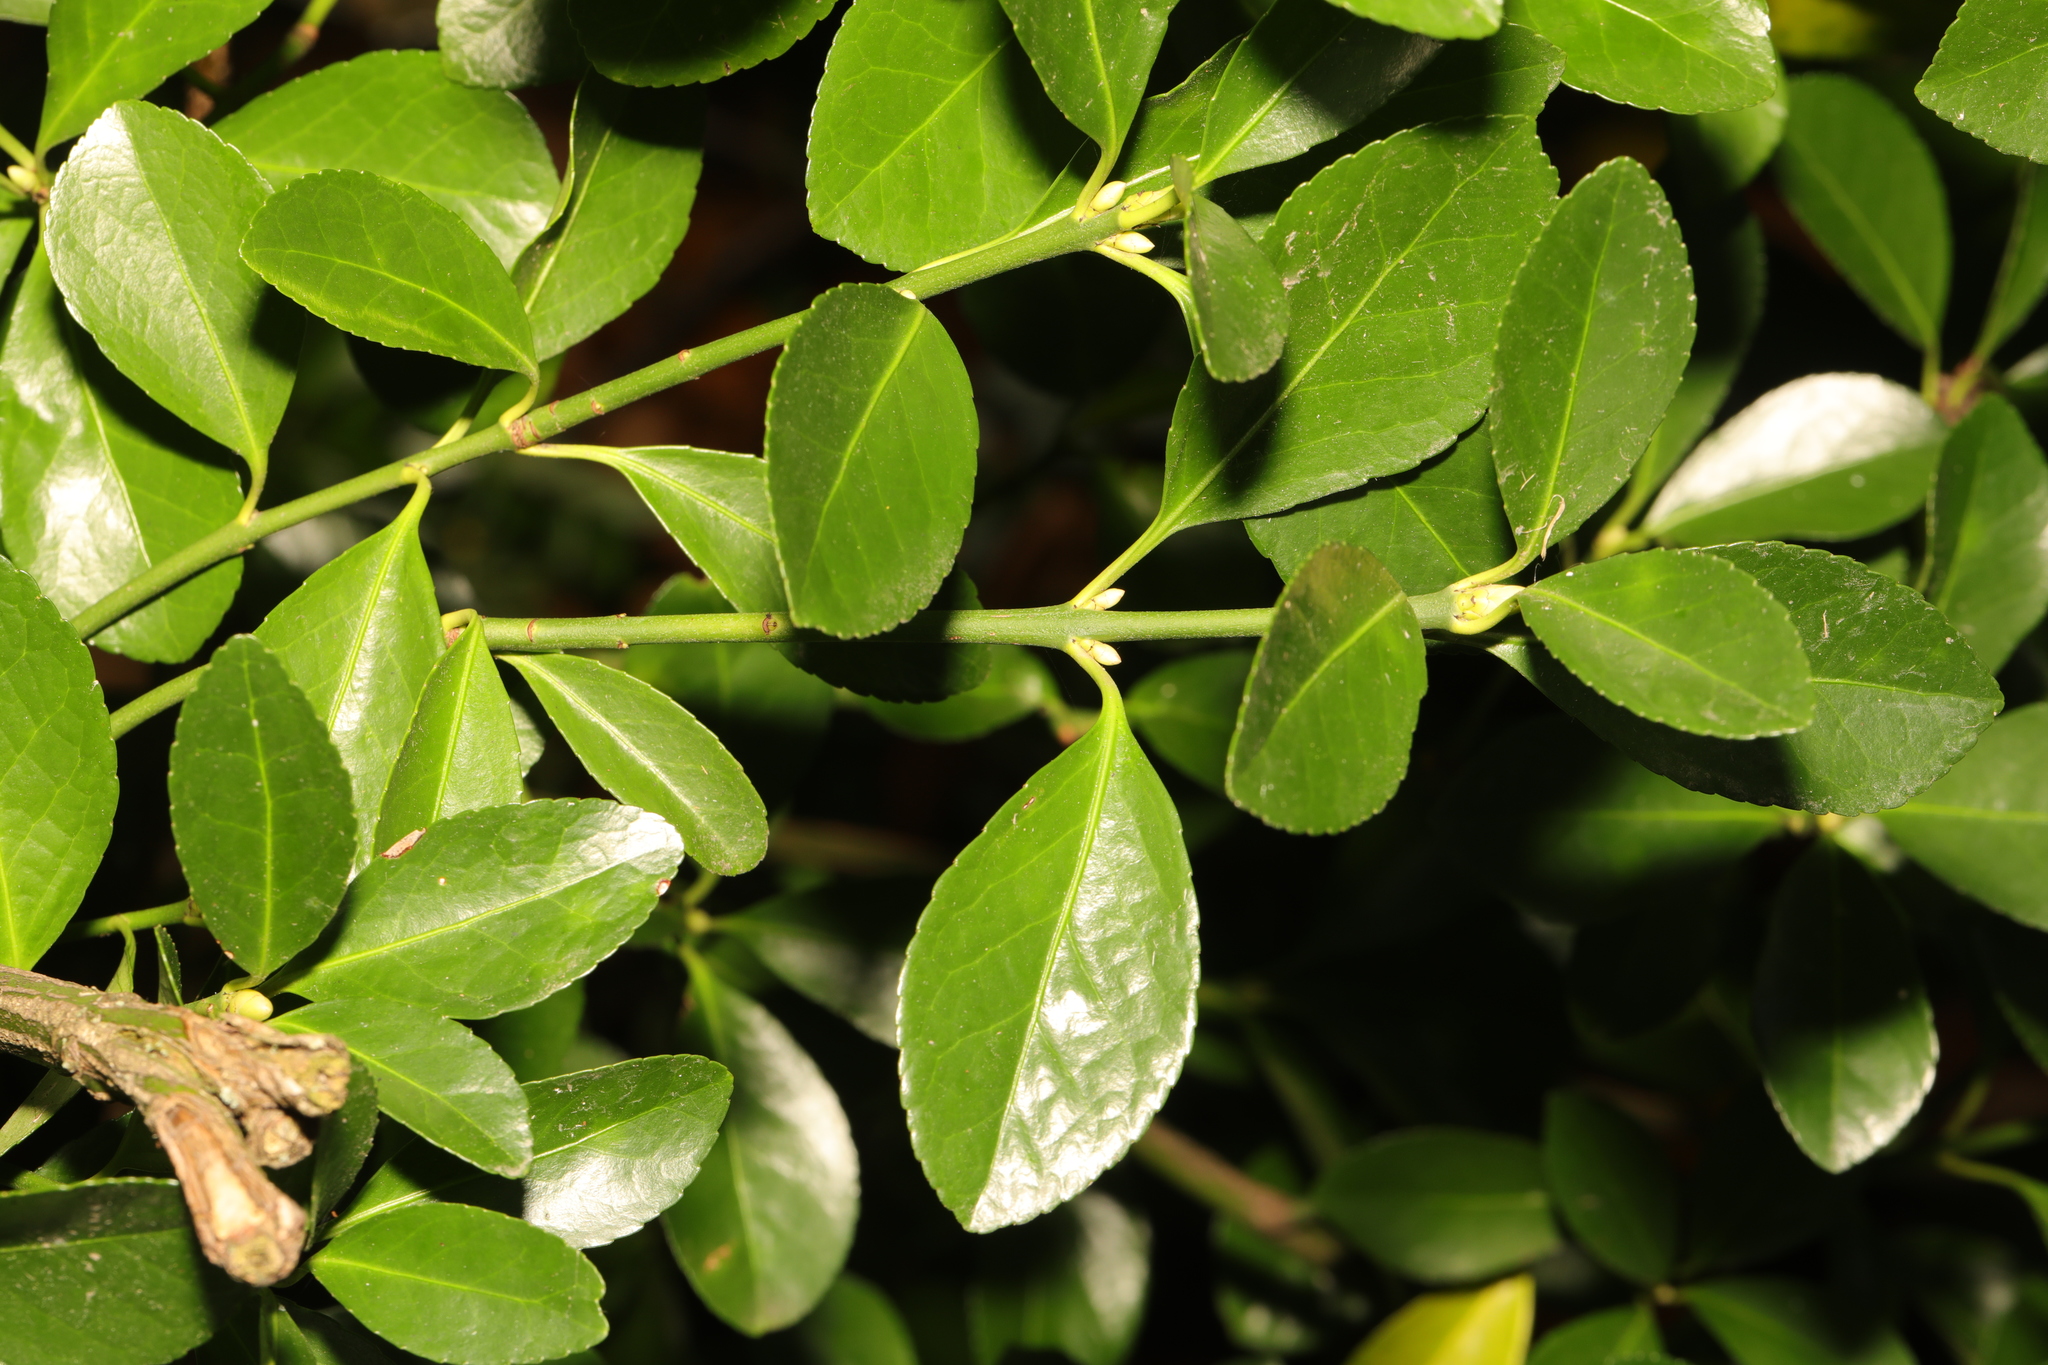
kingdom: Plantae
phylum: Tracheophyta
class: Magnoliopsida
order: Celastrales
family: Celastraceae
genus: Euonymus
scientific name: Euonymus japonicus
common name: Japanese spindletree
